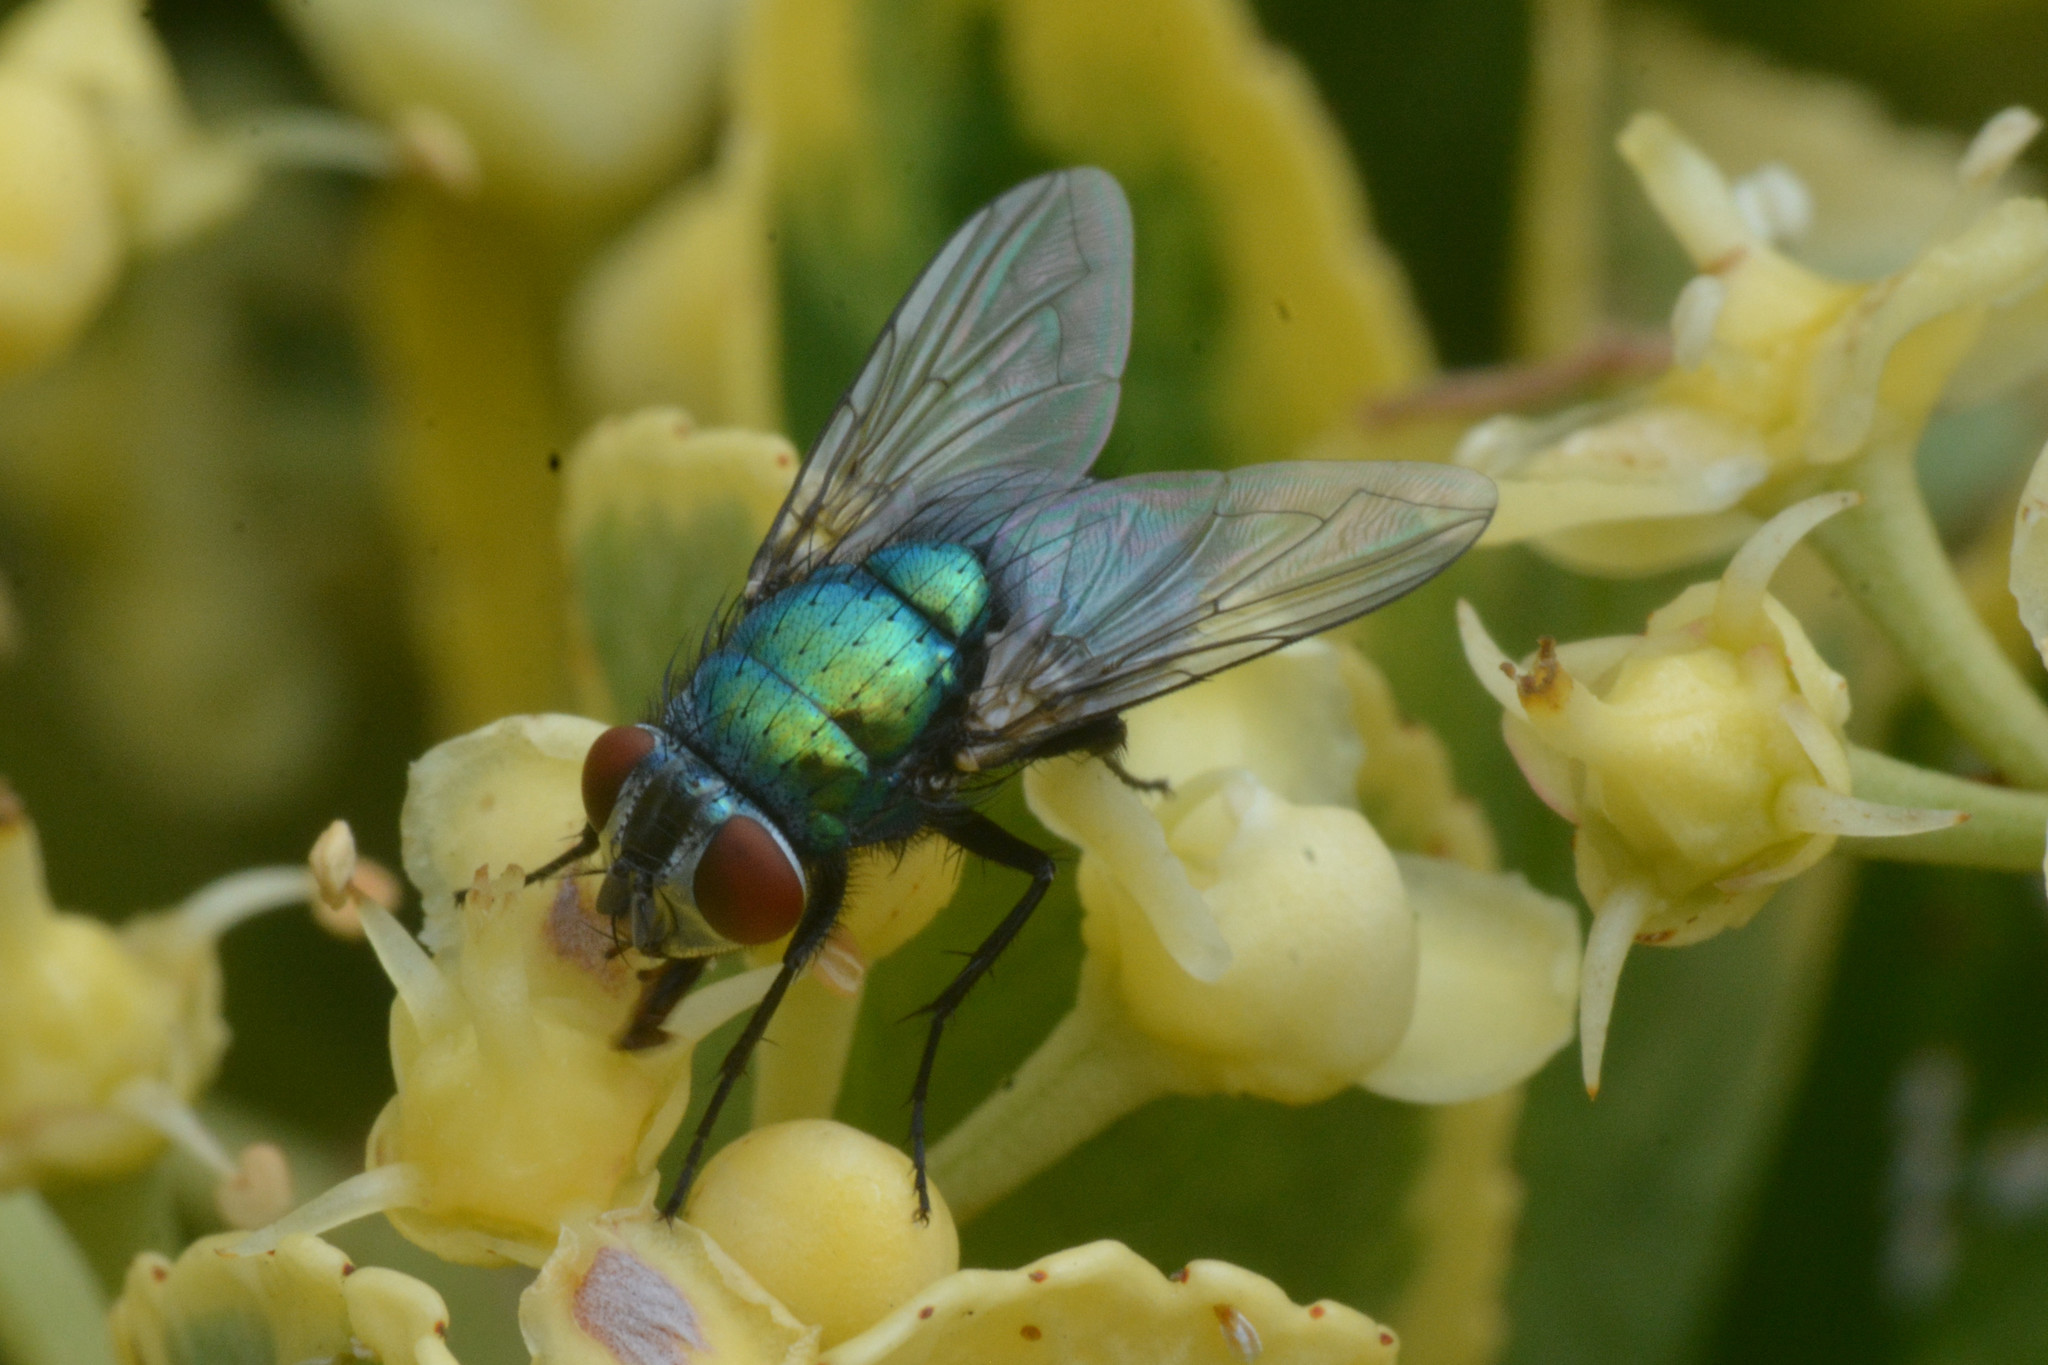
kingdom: Animalia
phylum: Arthropoda
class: Insecta
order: Diptera
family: Calliphoridae
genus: Lucilia
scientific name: Lucilia sericata
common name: Blow fly
